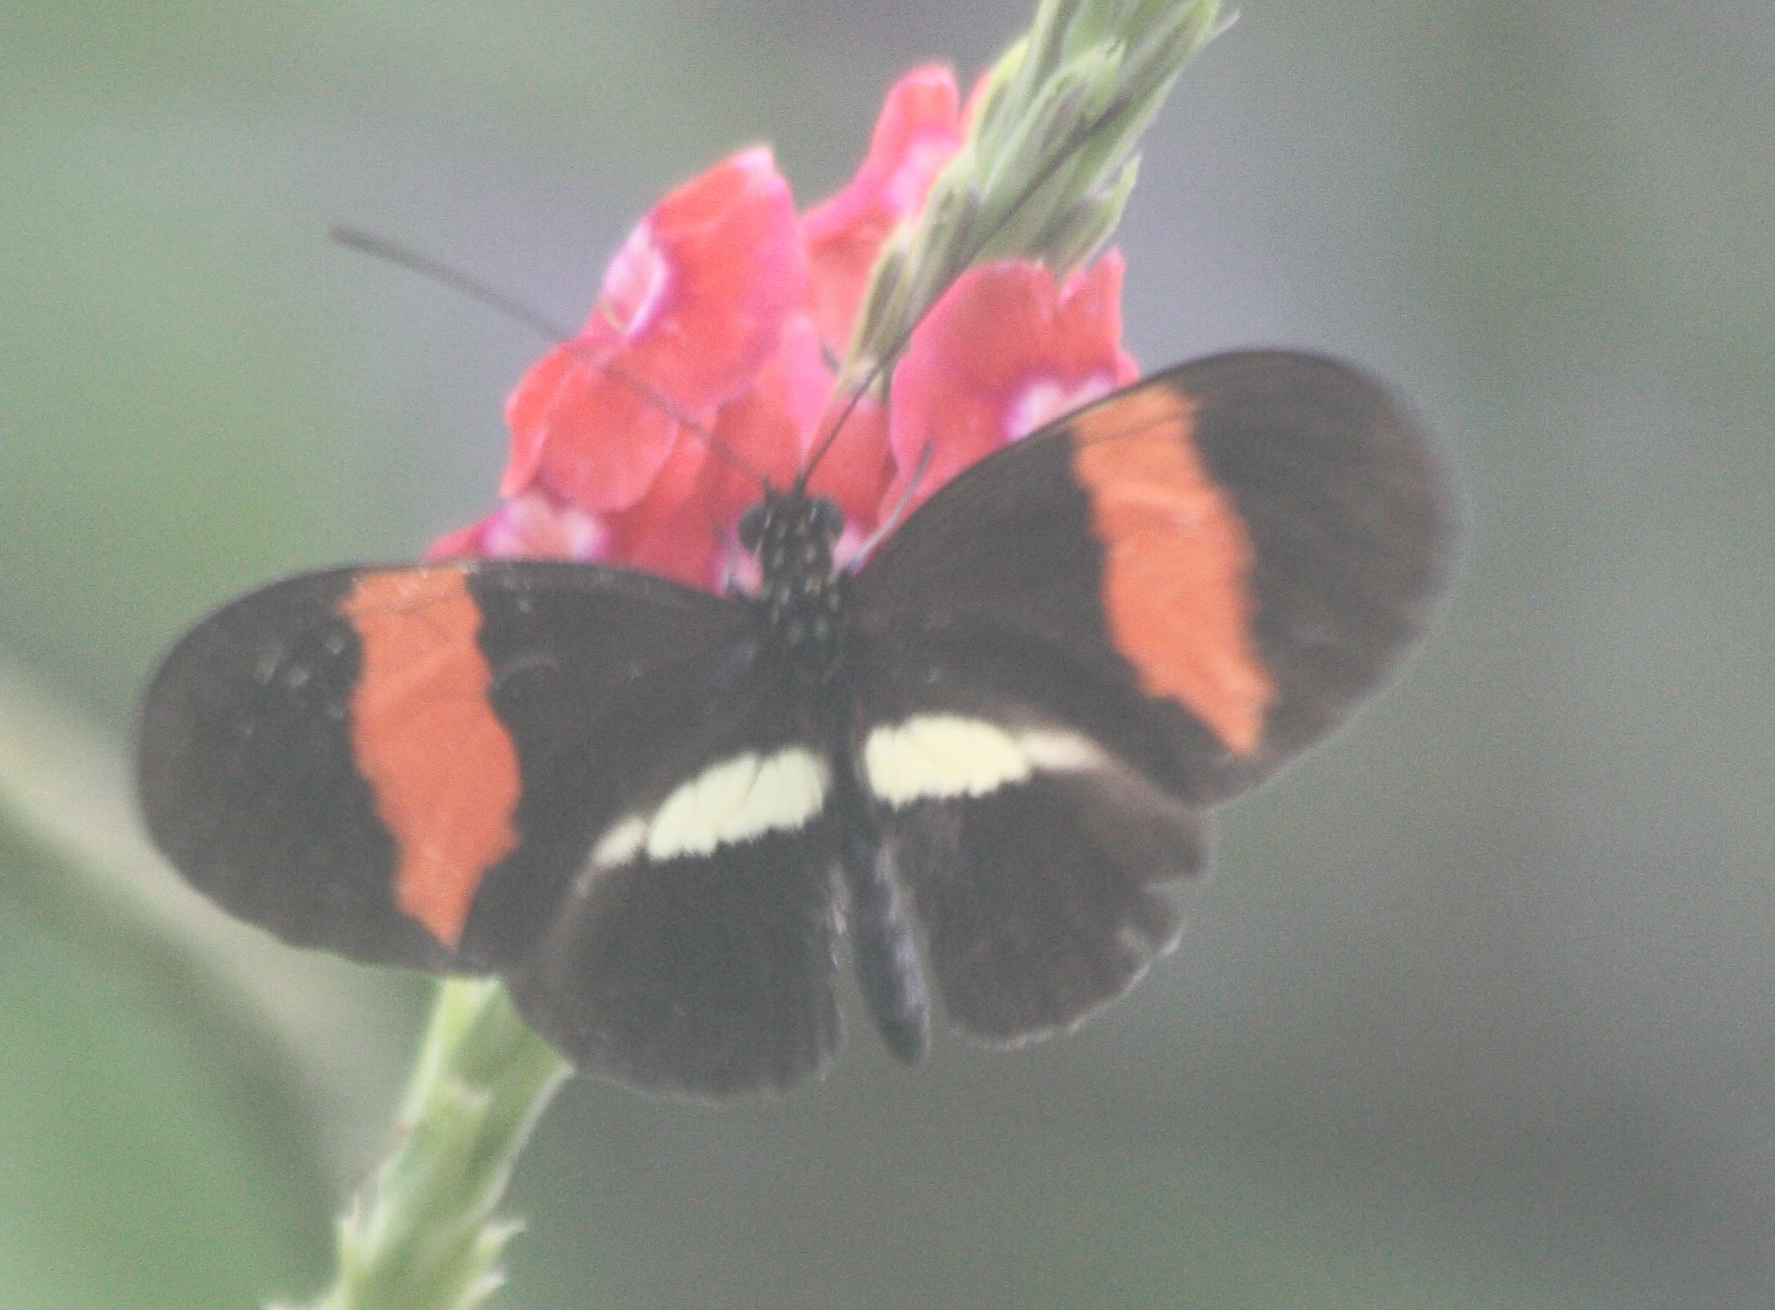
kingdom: Animalia
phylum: Arthropoda
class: Insecta
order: Lepidoptera
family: Nymphalidae
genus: Heliconius
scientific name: Heliconius erato
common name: Common patch longwing
